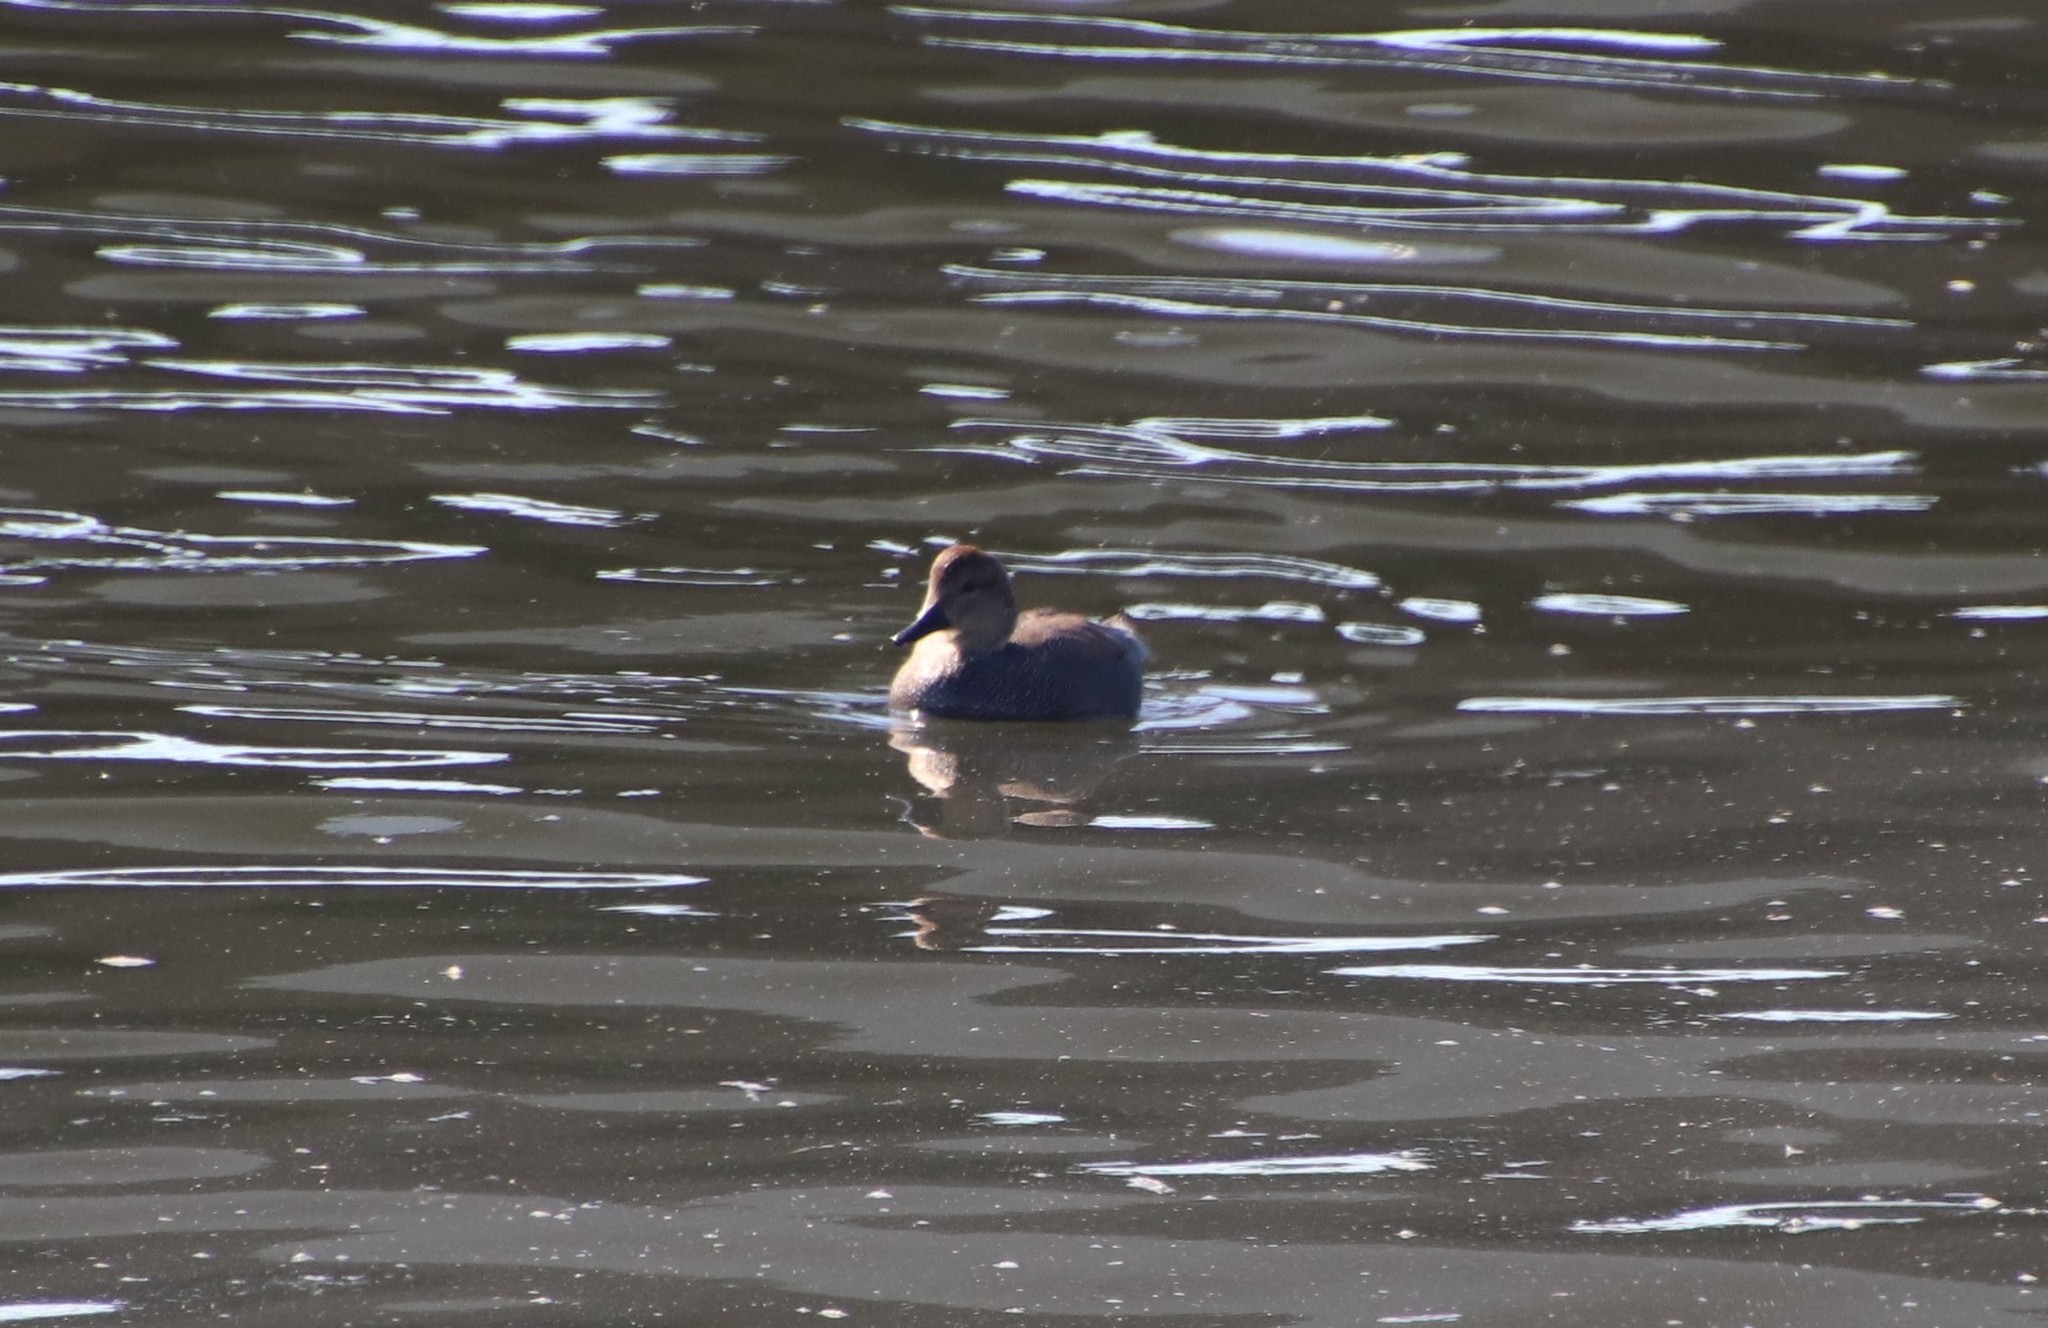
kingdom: Animalia
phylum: Chordata
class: Aves
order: Anseriformes
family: Anatidae
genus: Mareca
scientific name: Mareca strepera
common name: Gadwall
